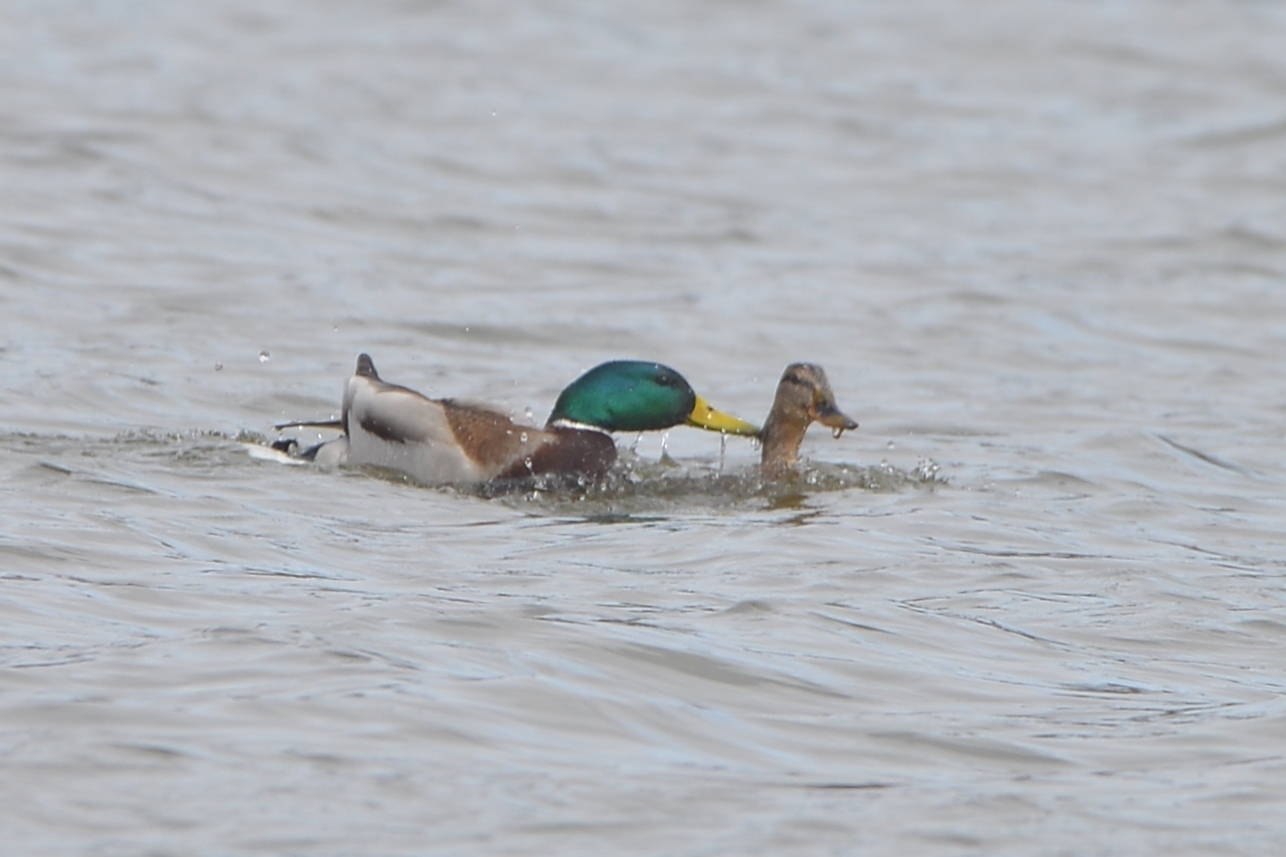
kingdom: Animalia
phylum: Chordata
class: Aves
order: Anseriformes
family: Anatidae
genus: Anas
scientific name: Anas platyrhynchos
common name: Mallard
